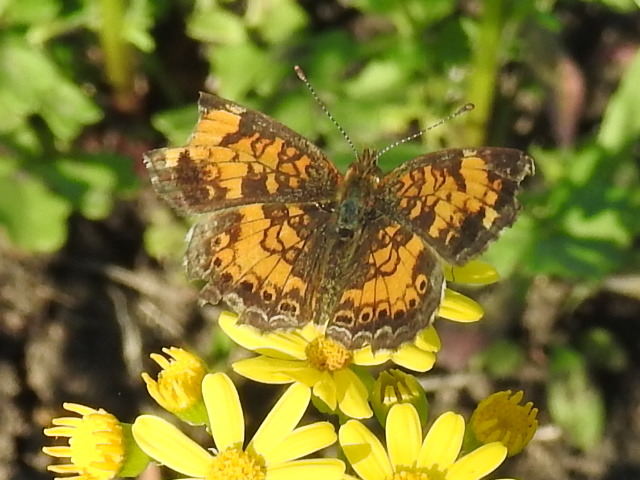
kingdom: Animalia
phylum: Arthropoda
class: Insecta
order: Lepidoptera
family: Nymphalidae
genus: Phyciodes
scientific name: Phyciodes tharos
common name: Pearl crescent
